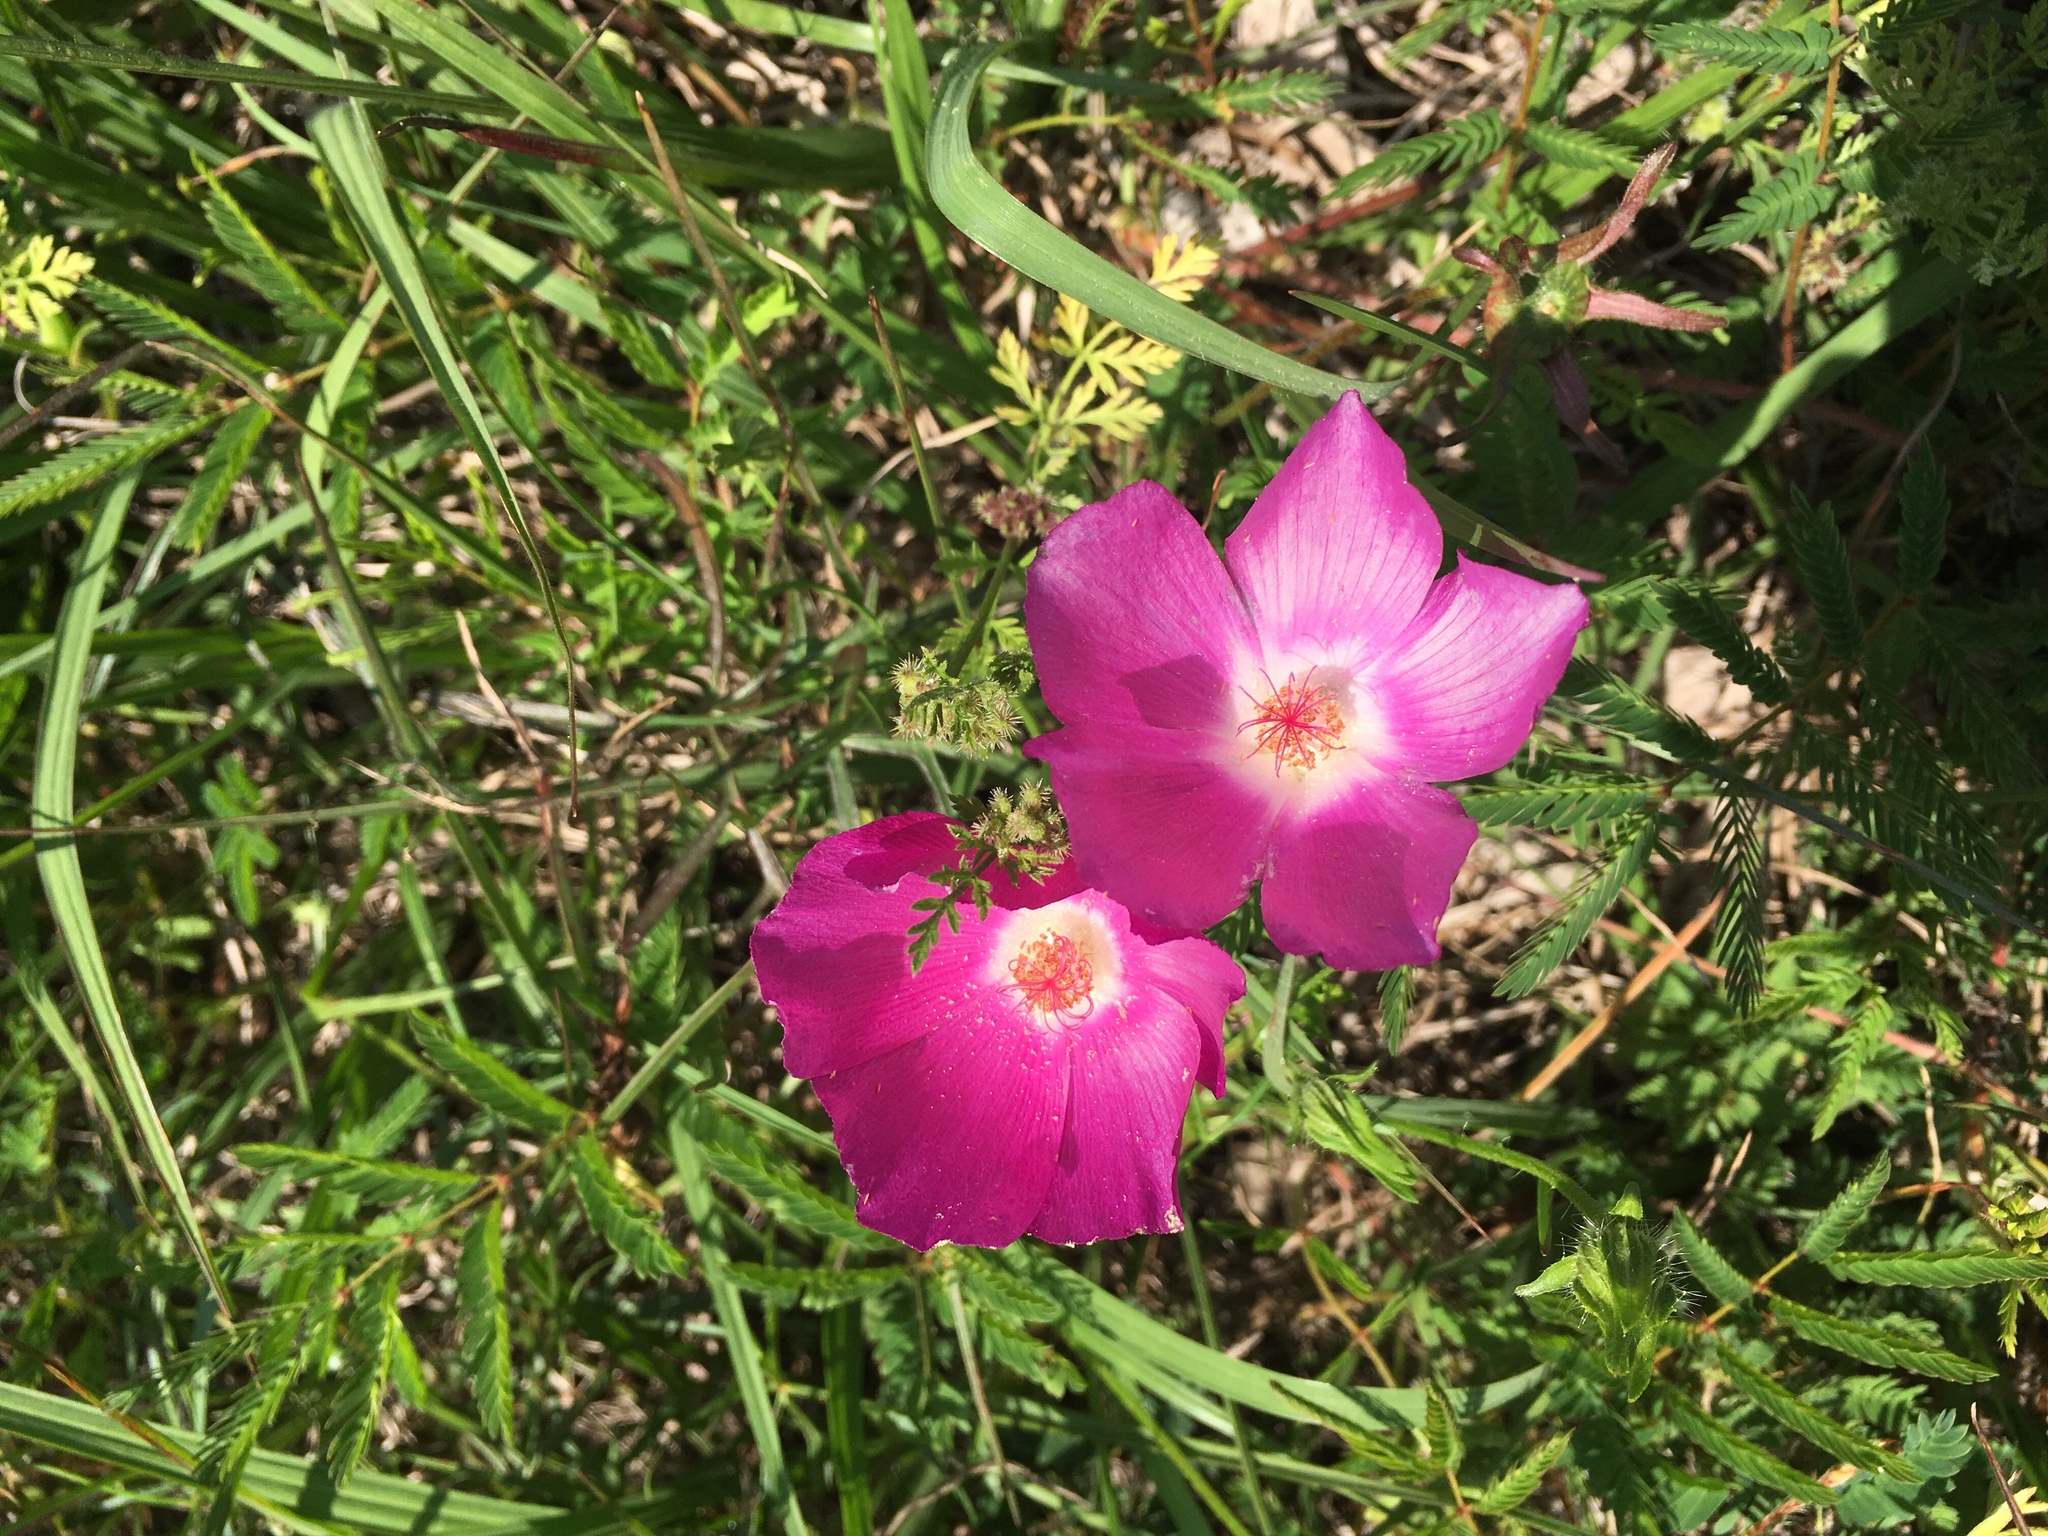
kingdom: Plantae
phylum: Tracheophyta
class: Magnoliopsida
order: Malvales
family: Malvaceae
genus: Callirhoe
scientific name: Callirhoe involucrata
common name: Purple poppy-mallow
